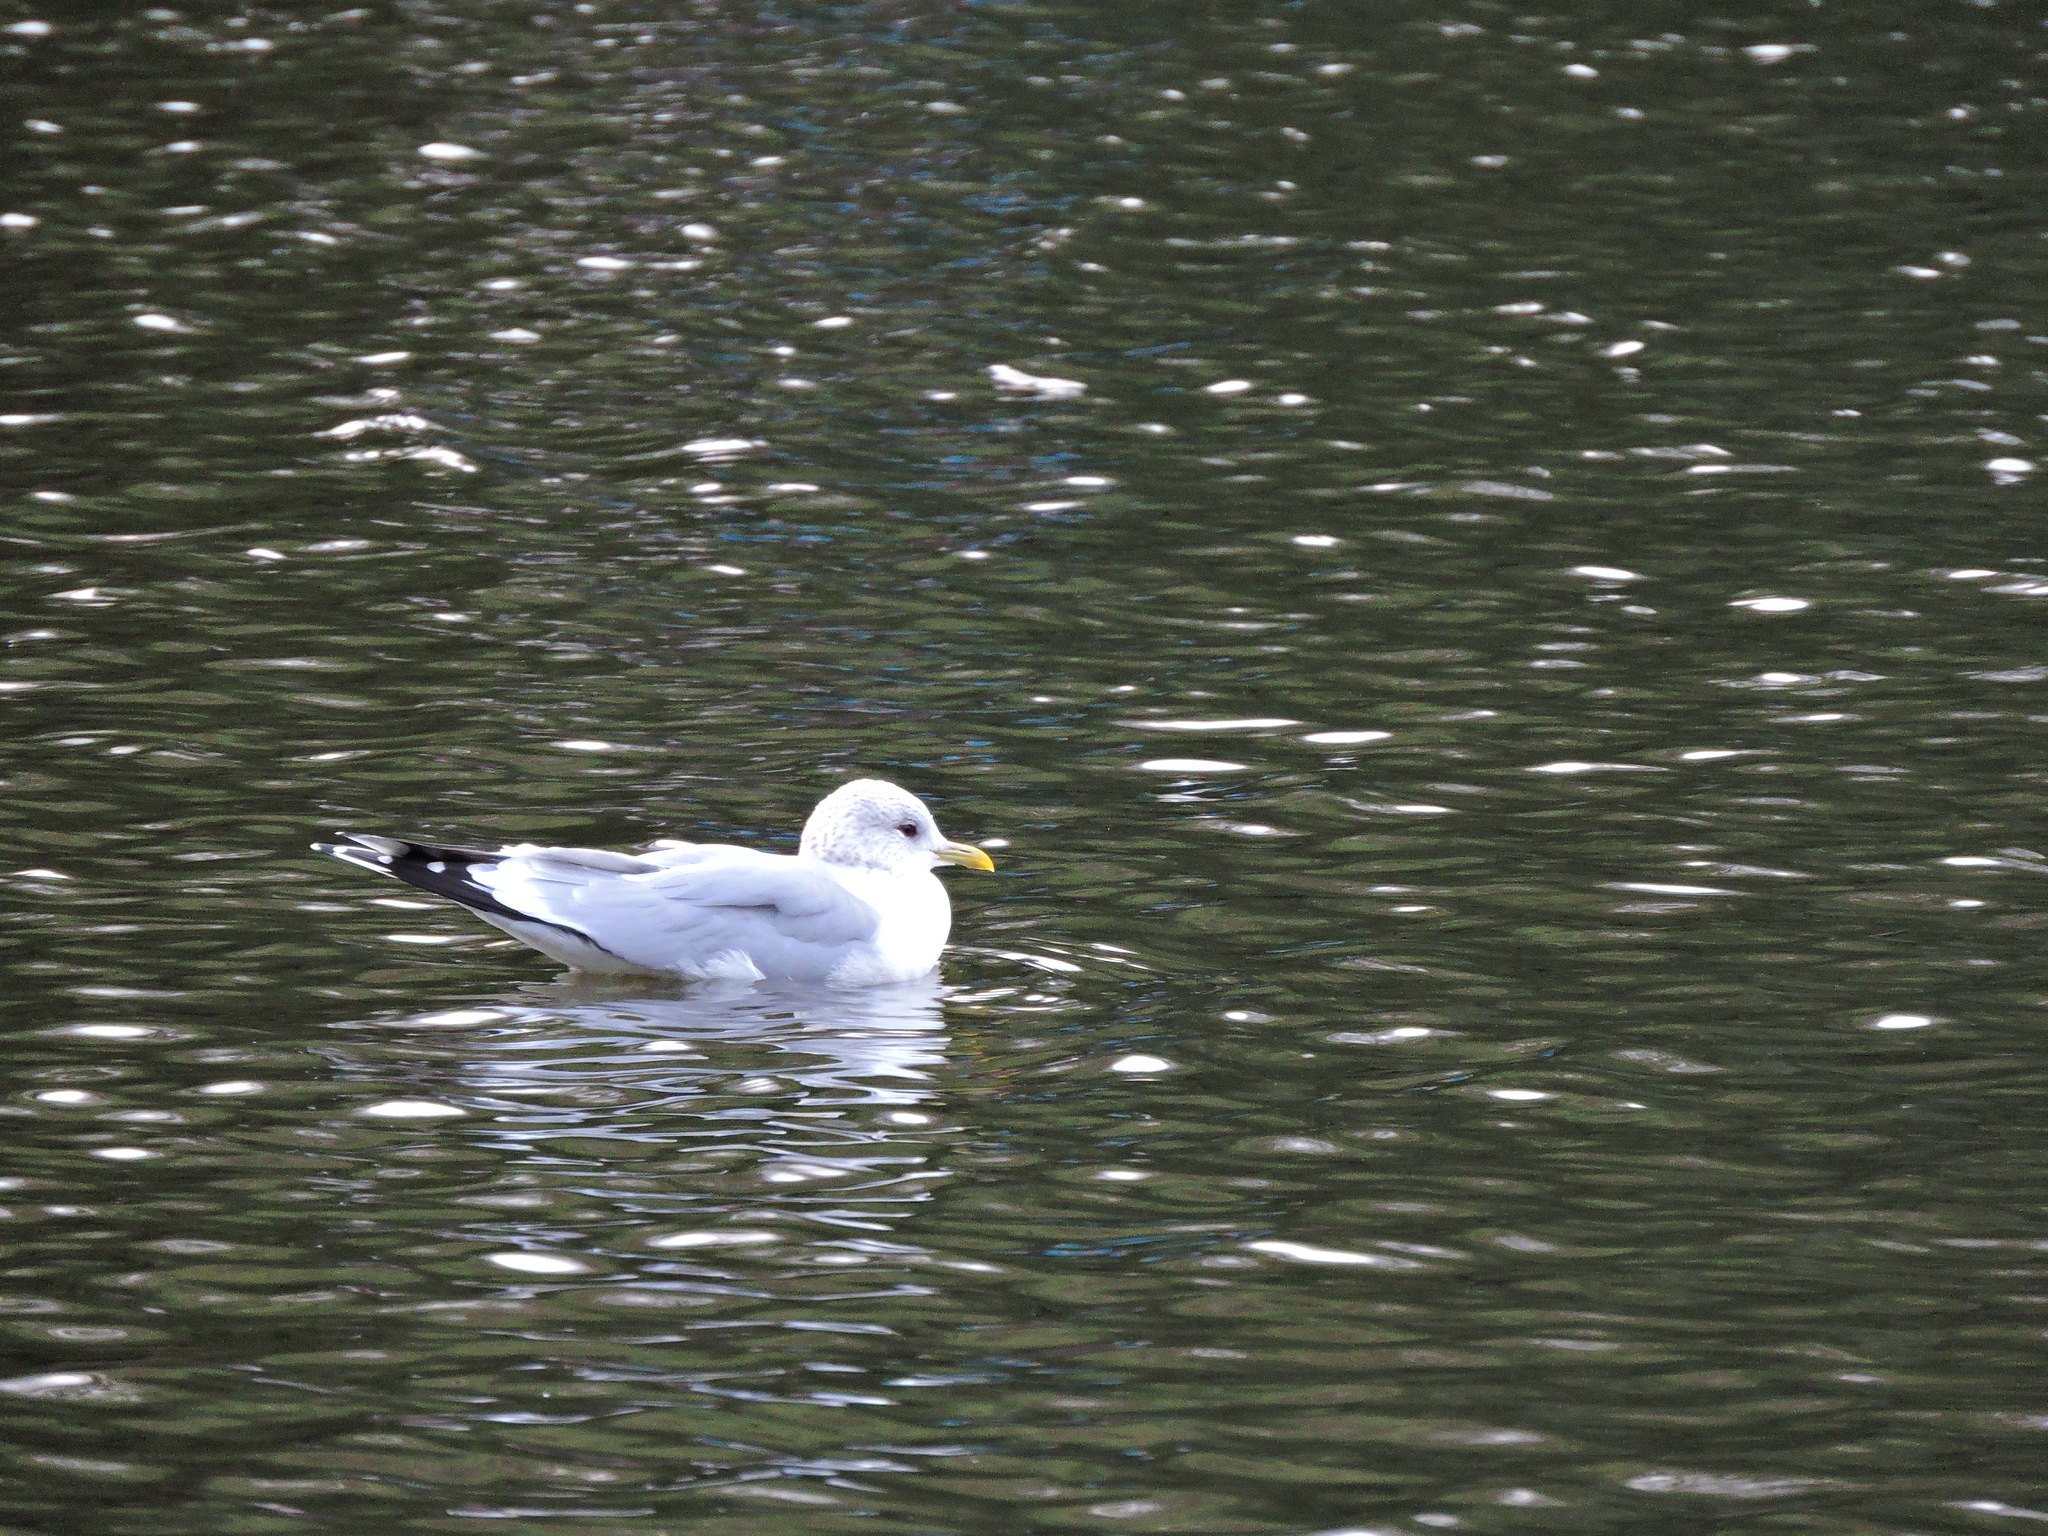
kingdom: Animalia
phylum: Chordata
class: Aves
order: Charadriiformes
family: Laridae
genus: Larus
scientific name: Larus canus
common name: Mew gull
